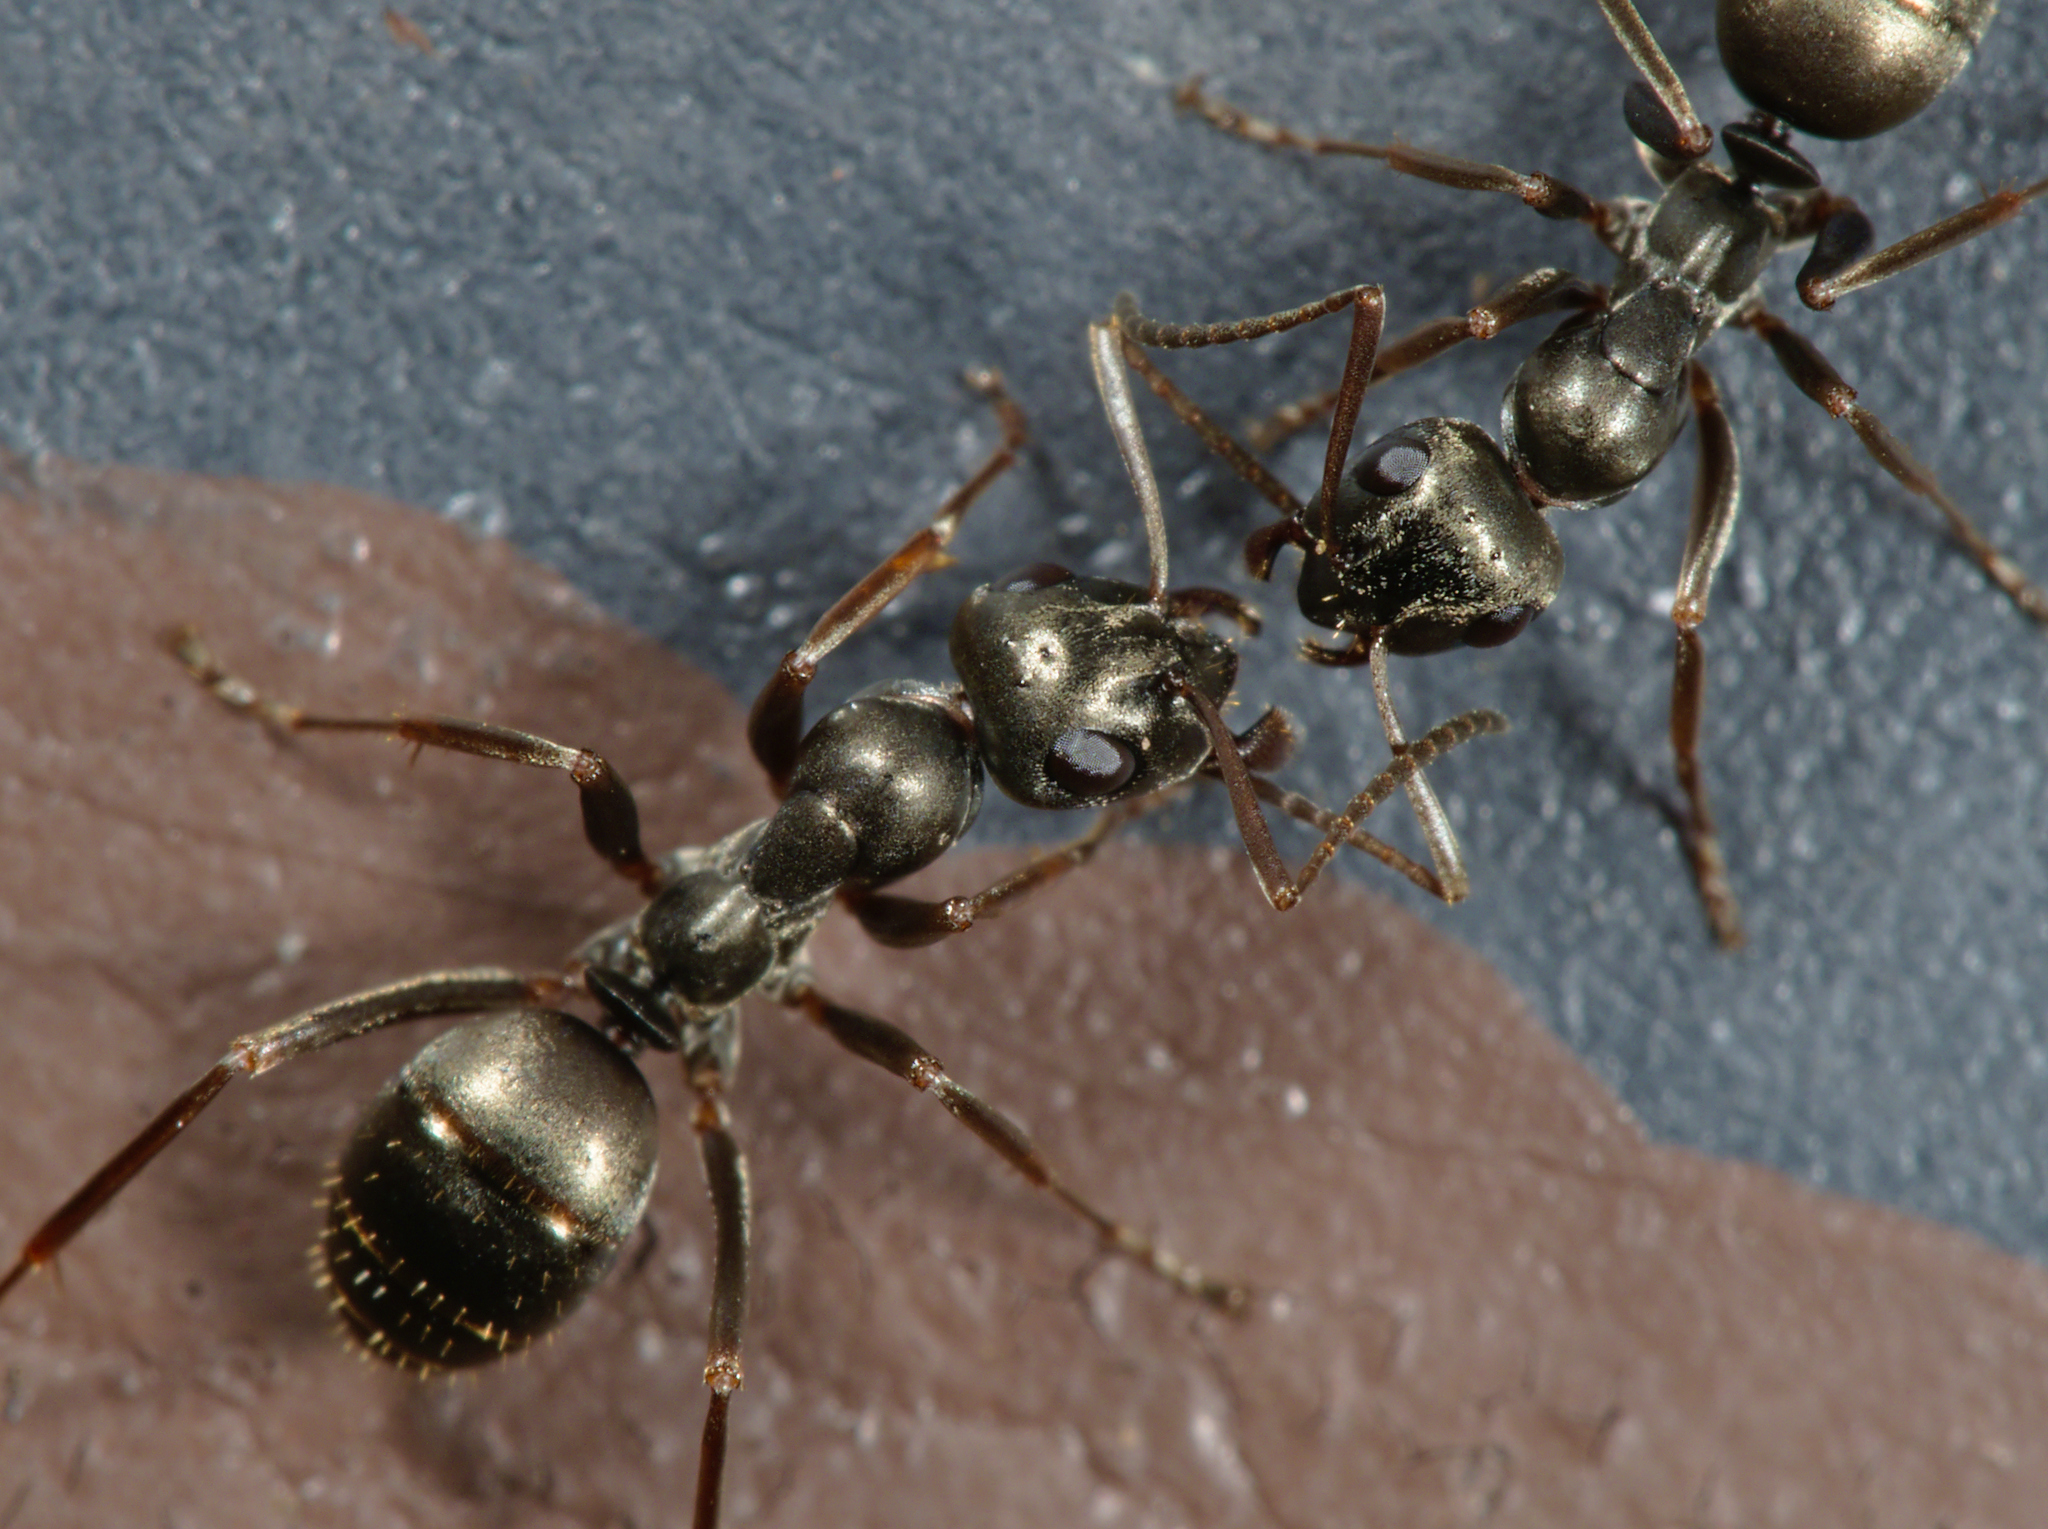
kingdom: Animalia
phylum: Arthropoda
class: Insecta
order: Hymenoptera
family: Formicidae
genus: Formica
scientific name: Formica fusca
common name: Silky ant
